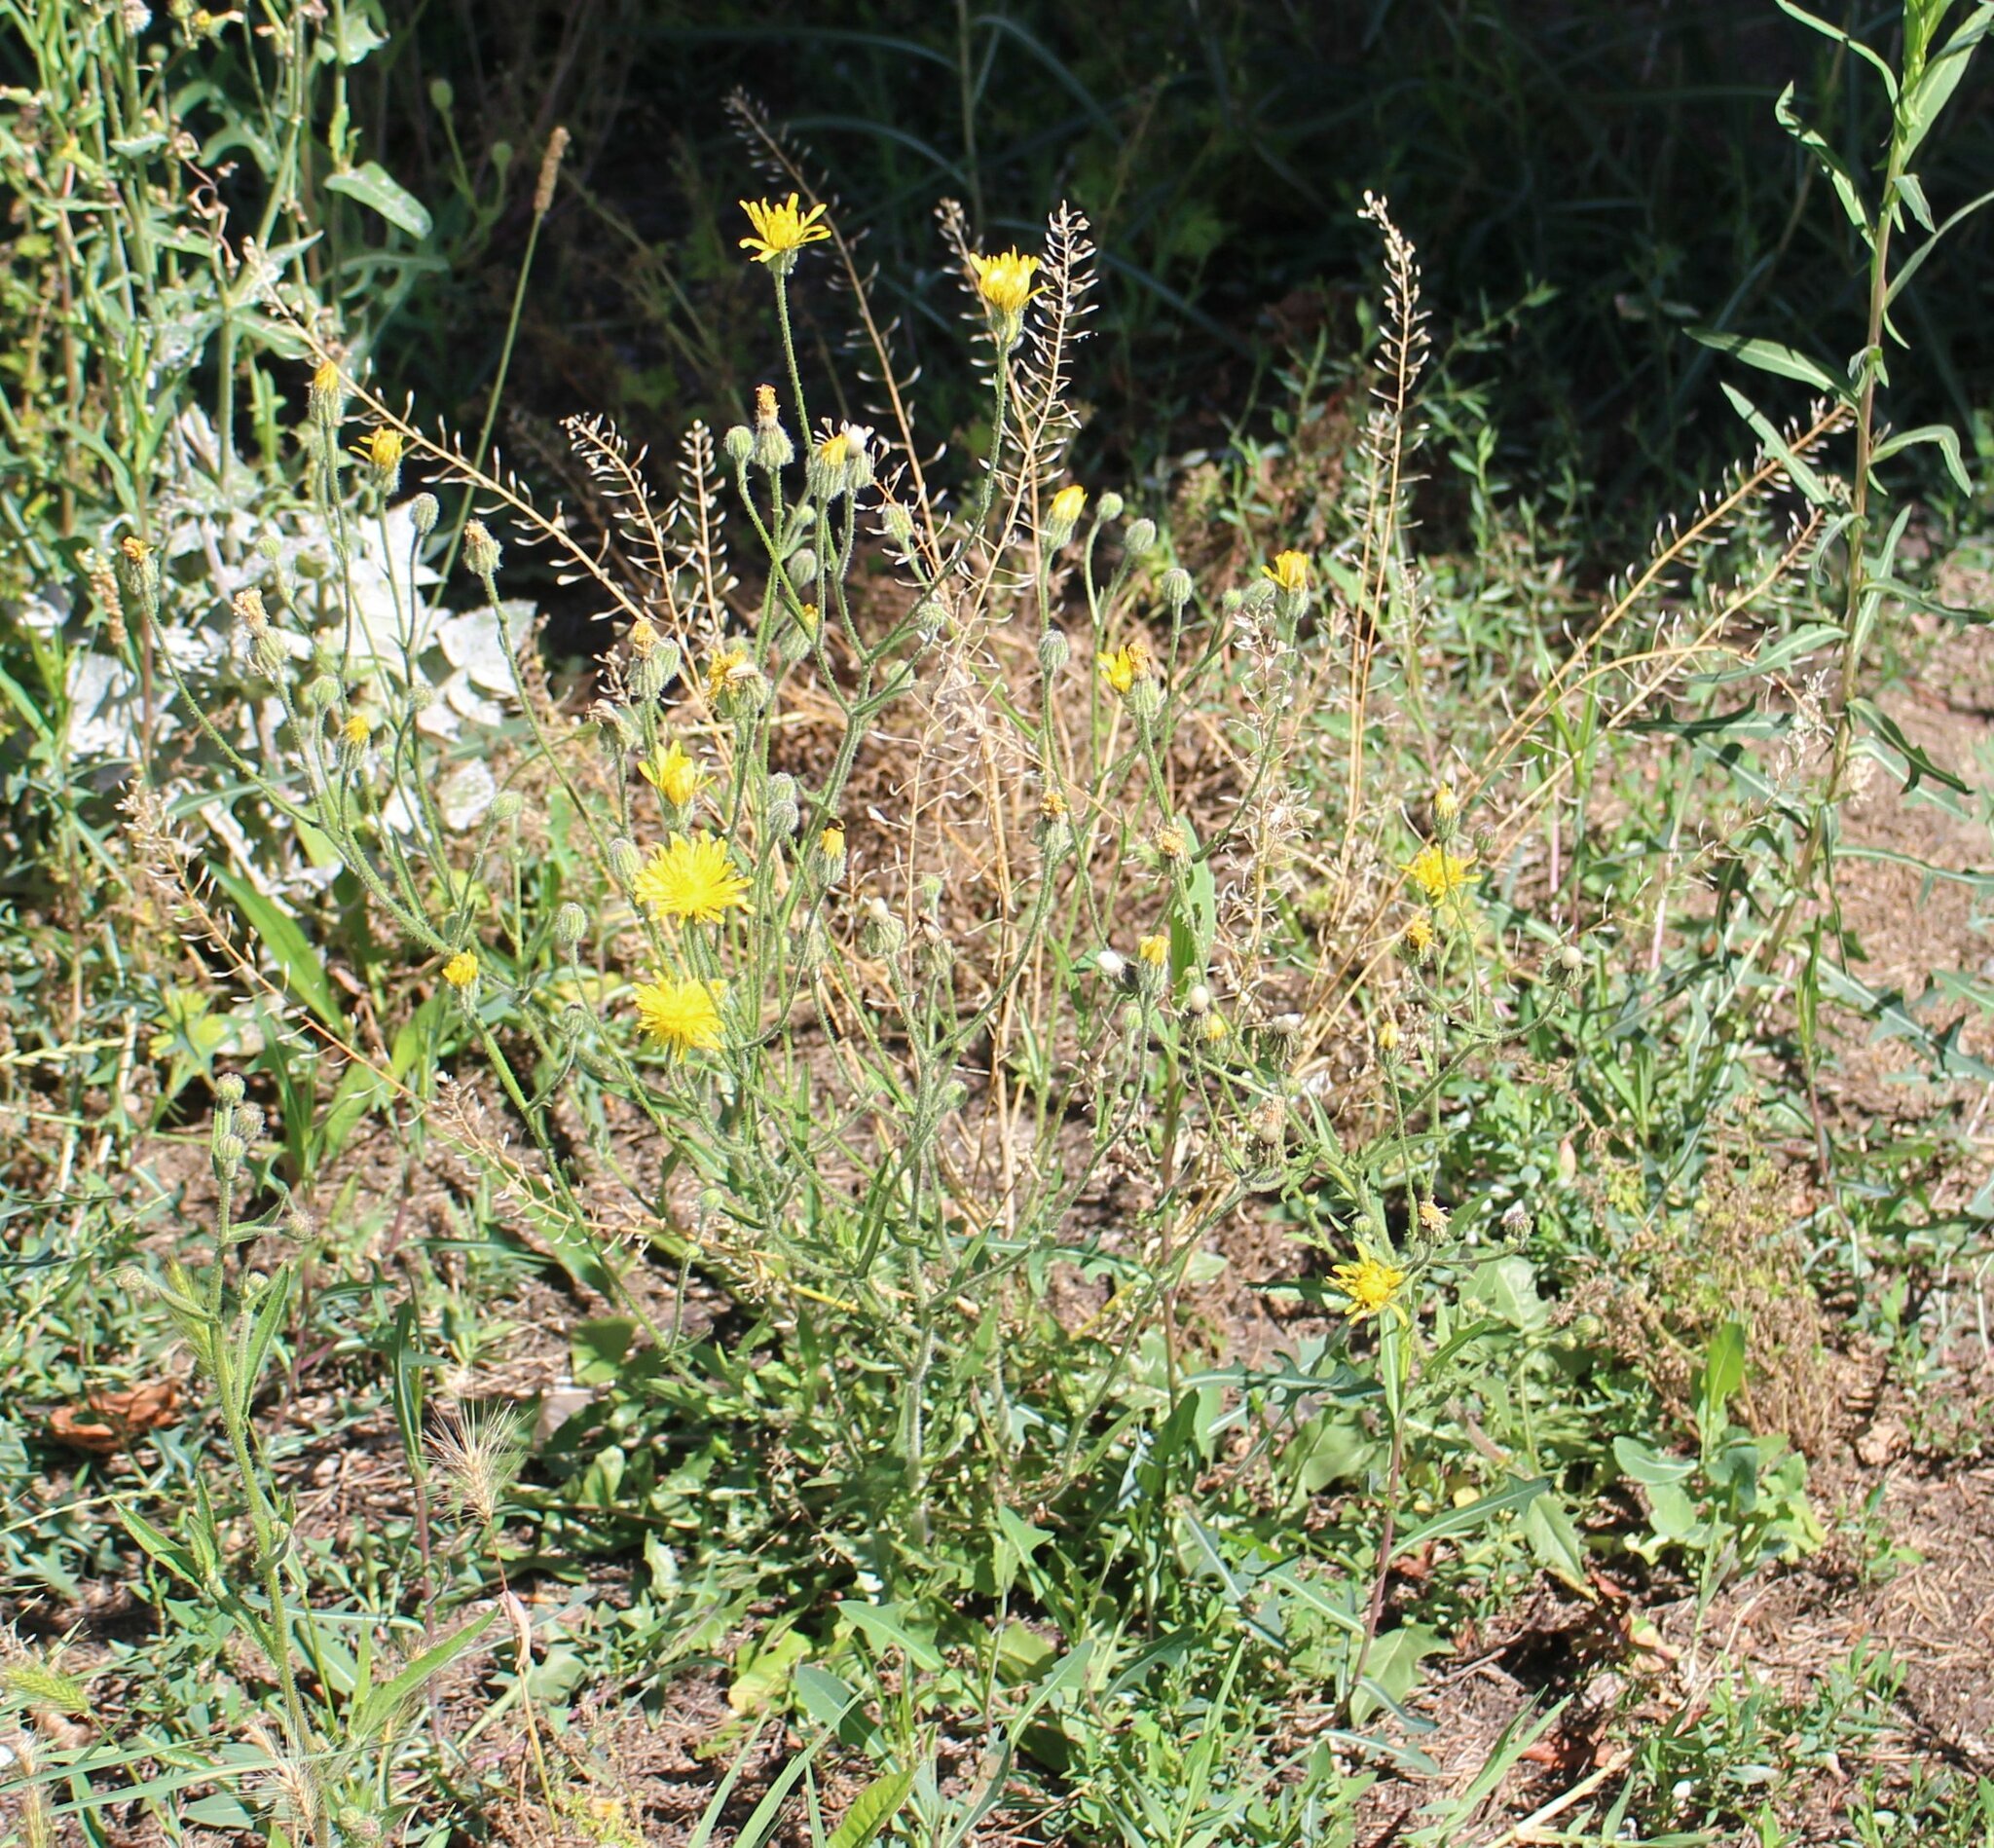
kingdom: Plantae
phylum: Tracheophyta
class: Magnoliopsida
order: Brassicales
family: Brassicaceae
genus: Capsella
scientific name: Capsella bursa-pastoris
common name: Shepherd's purse
